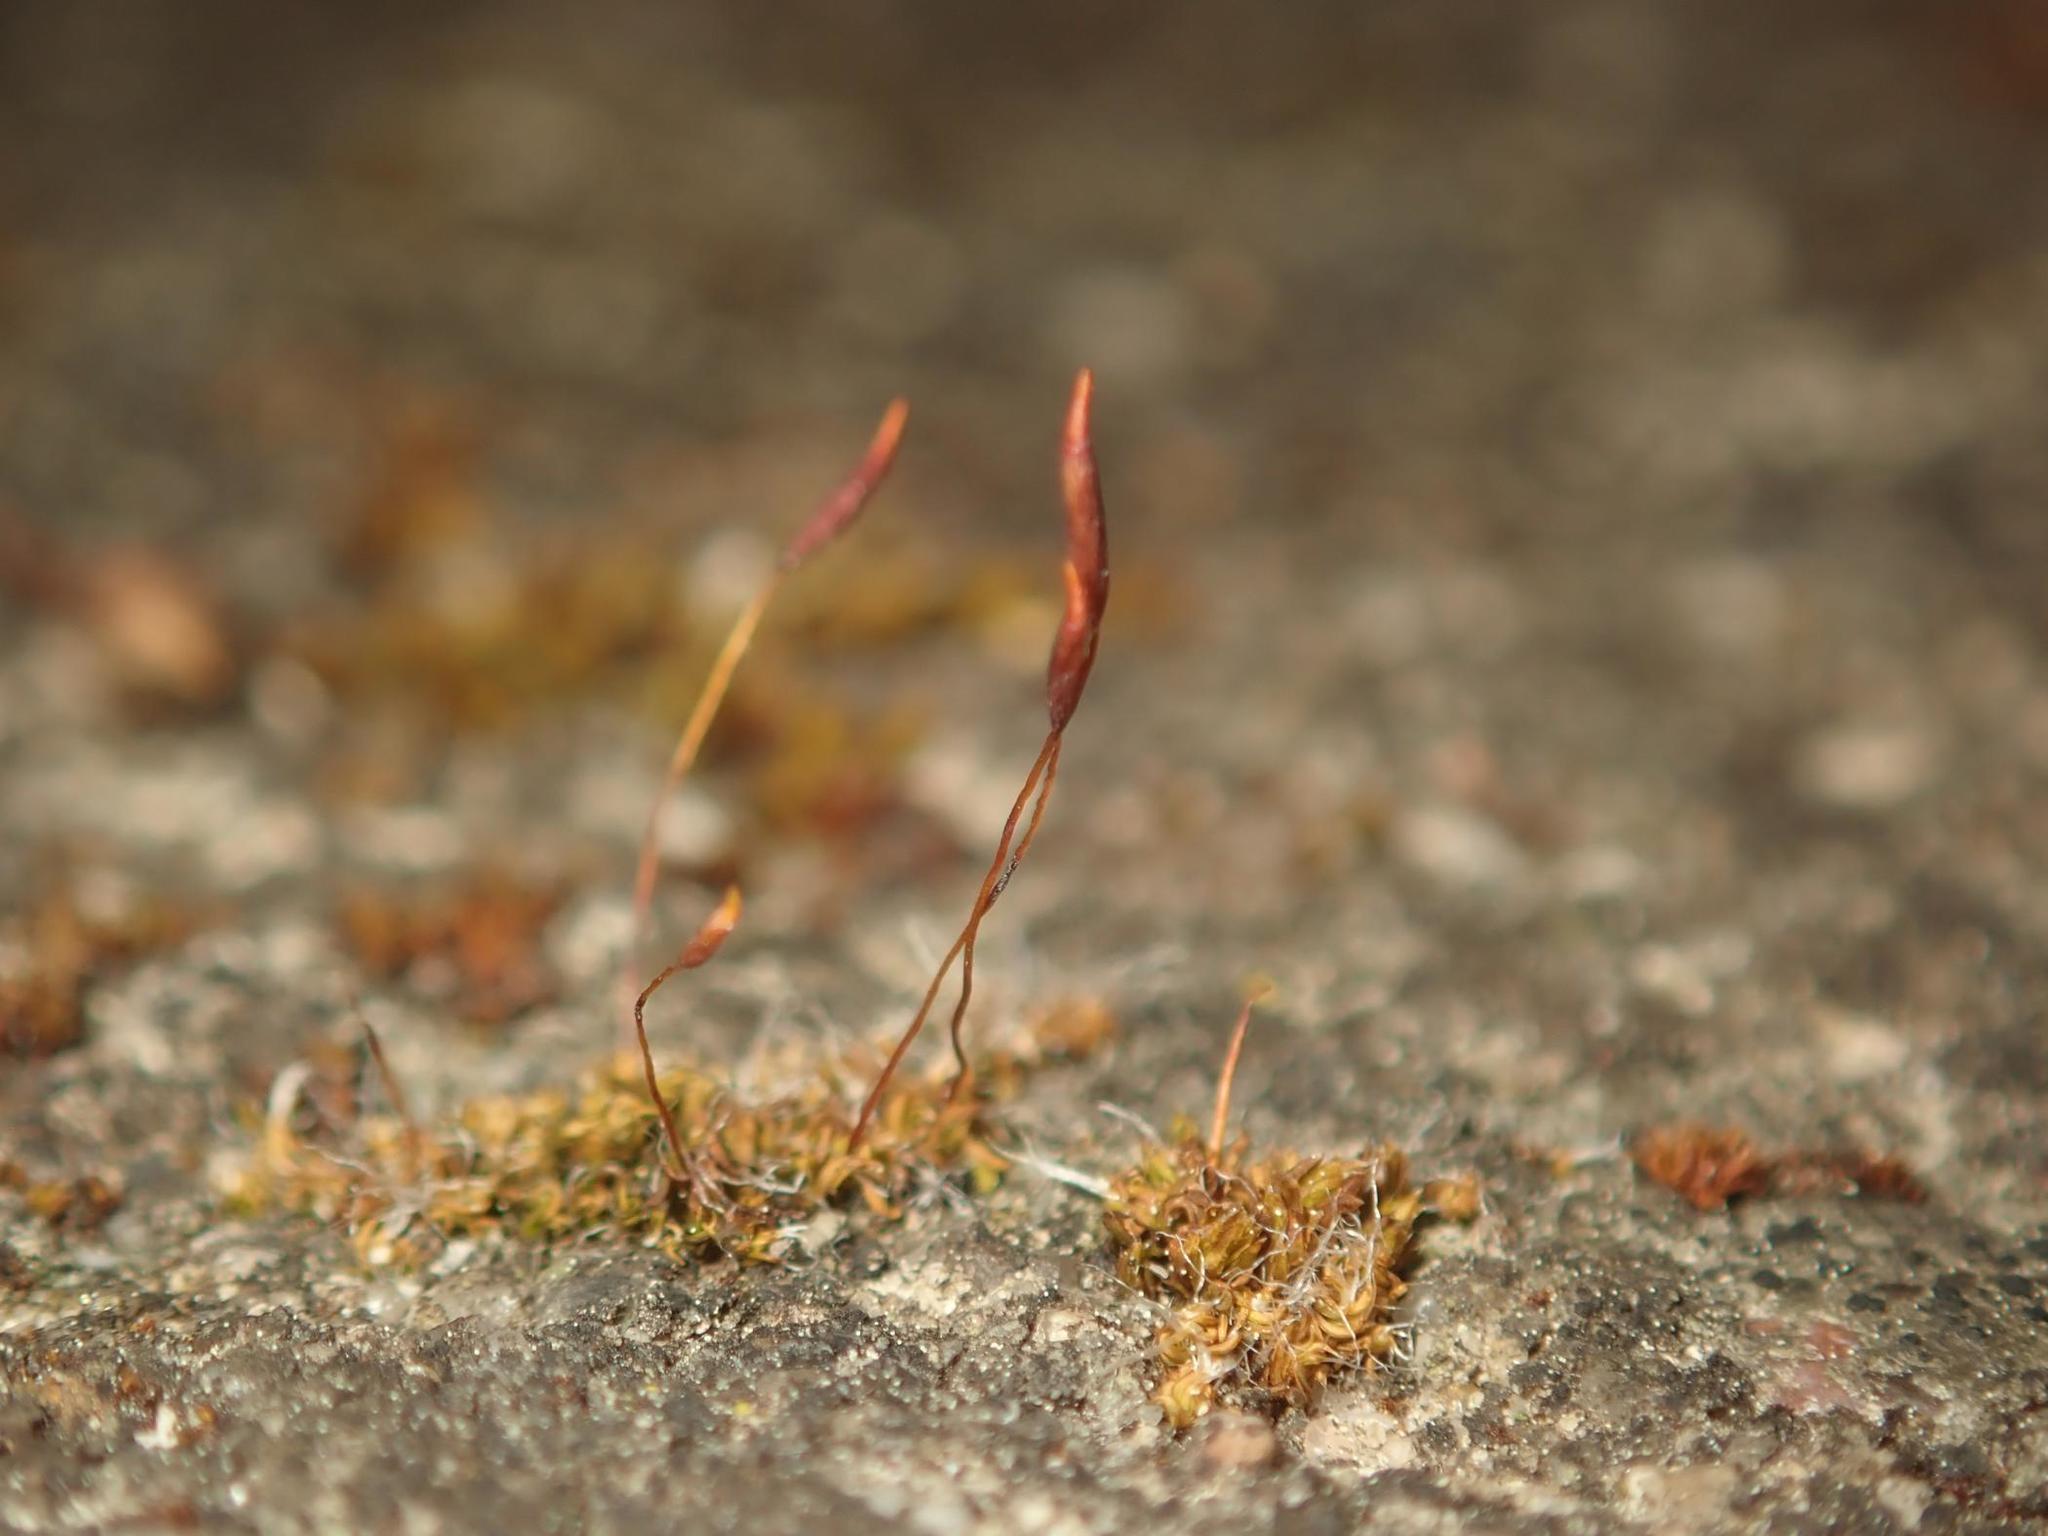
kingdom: Plantae
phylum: Bryophyta
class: Bryopsida
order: Pottiales
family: Pottiaceae
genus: Tortula
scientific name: Tortula muralis
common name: Wall screw-moss
